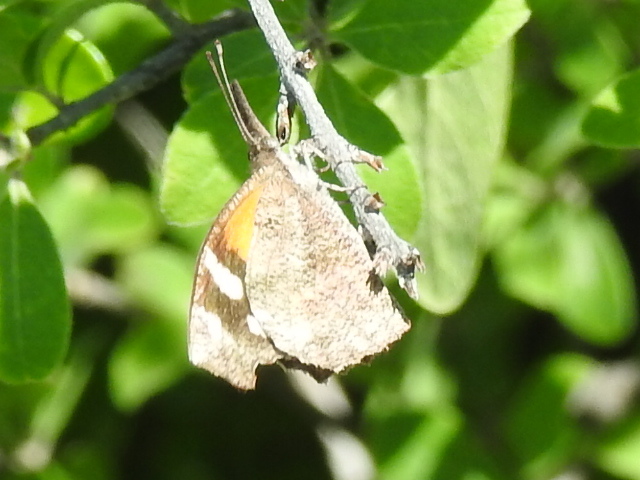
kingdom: Animalia
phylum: Arthropoda
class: Insecta
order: Lepidoptera
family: Nymphalidae
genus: Libytheana
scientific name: Libytheana carinenta
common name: American snout
